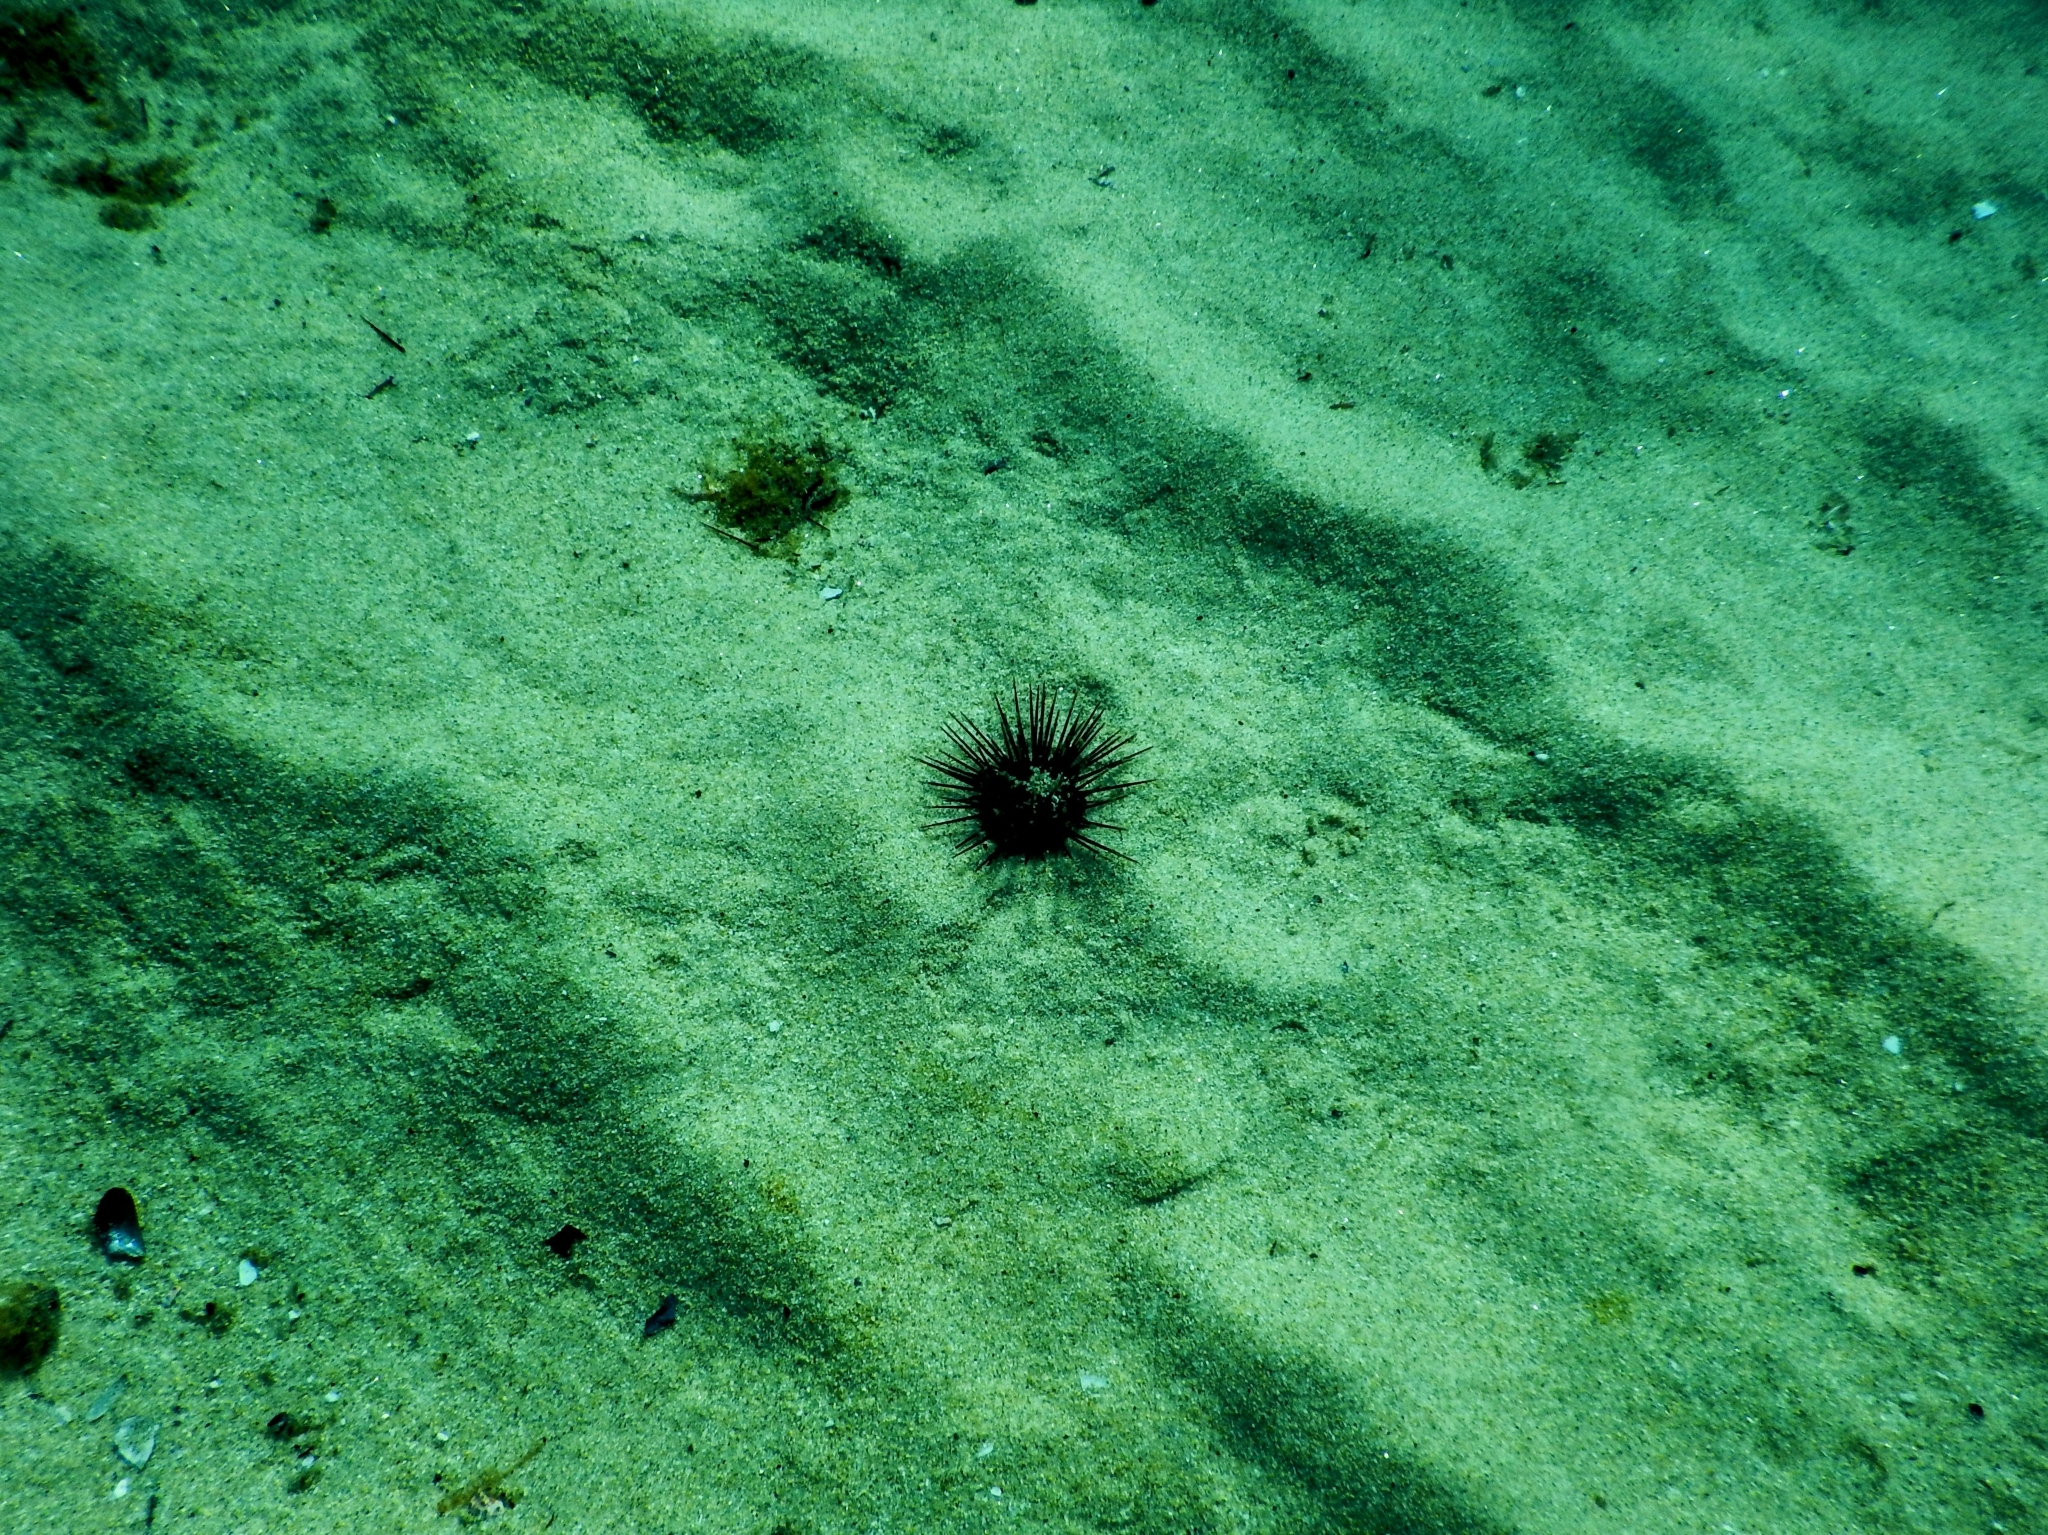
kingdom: Animalia
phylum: Echinodermata
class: Echinoidea
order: Diadematoida
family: Diadematidae
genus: Centrostephanus
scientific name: Centrostephanus longispinus
